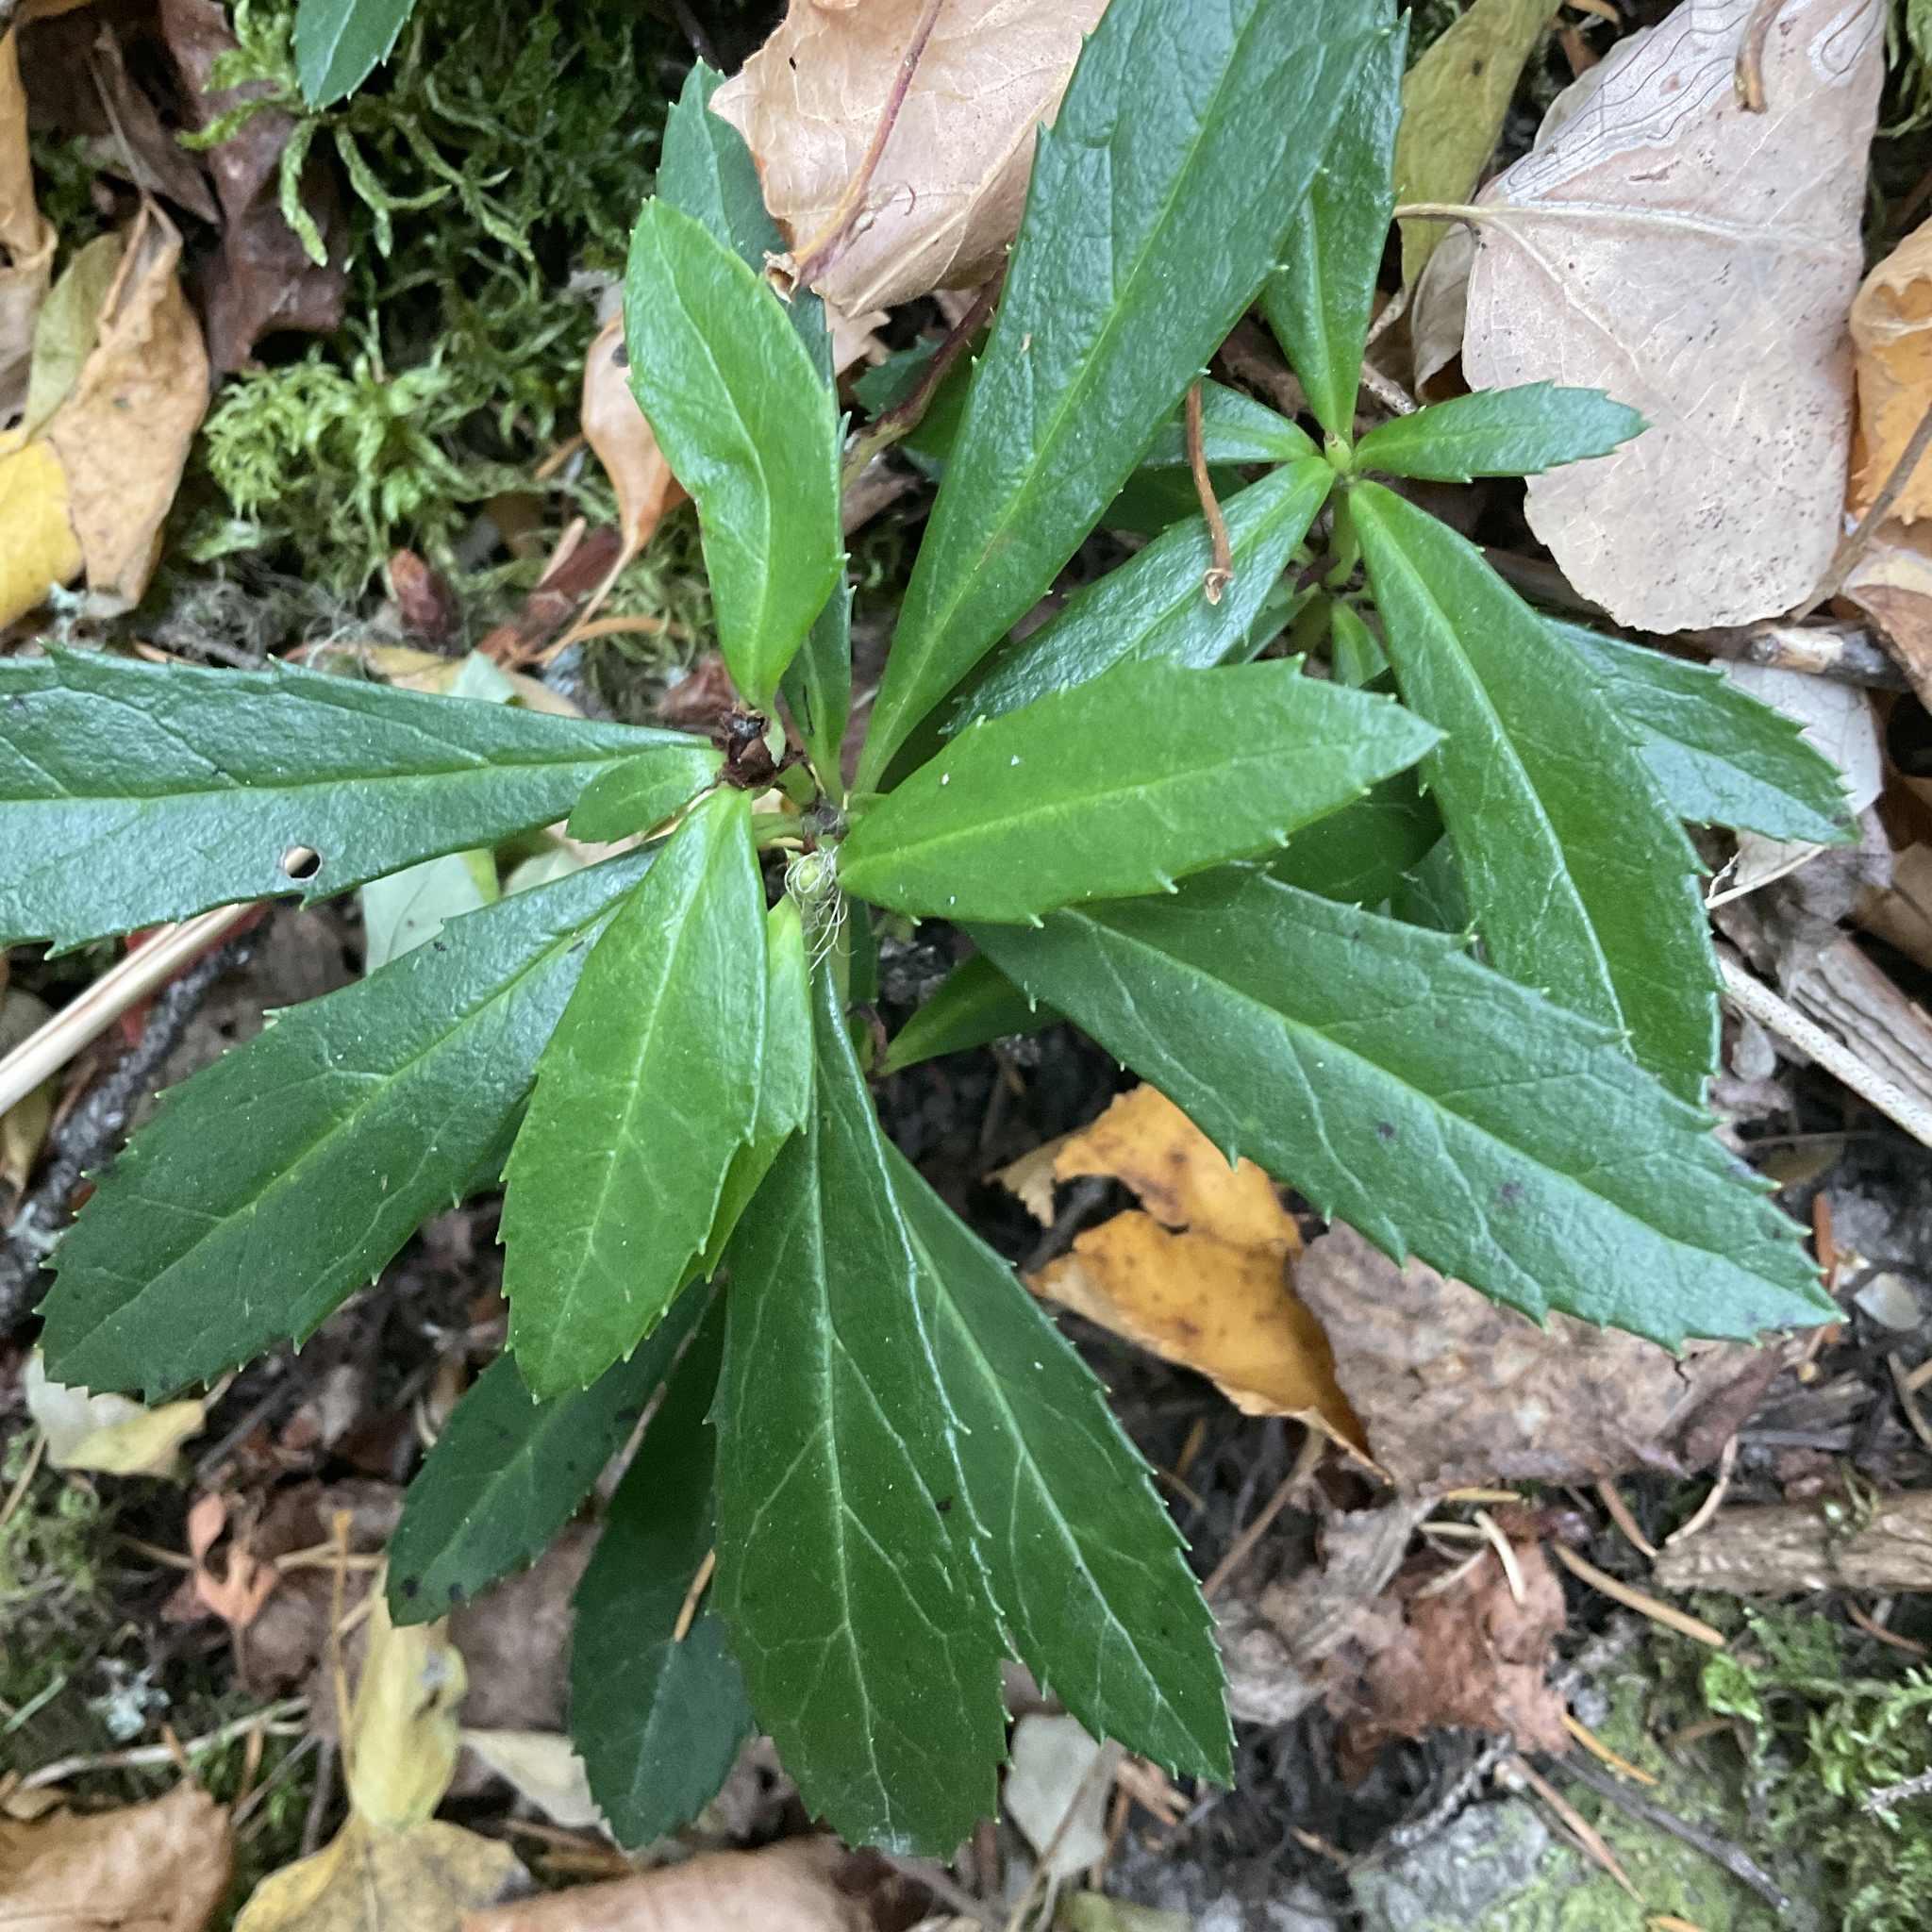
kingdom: Plantae
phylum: Tracheophyta
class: Magnoliopsida
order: Ericales
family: Ericaceae
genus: Chimaphila
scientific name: Chimaphila umbellata
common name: Pipsissewa
